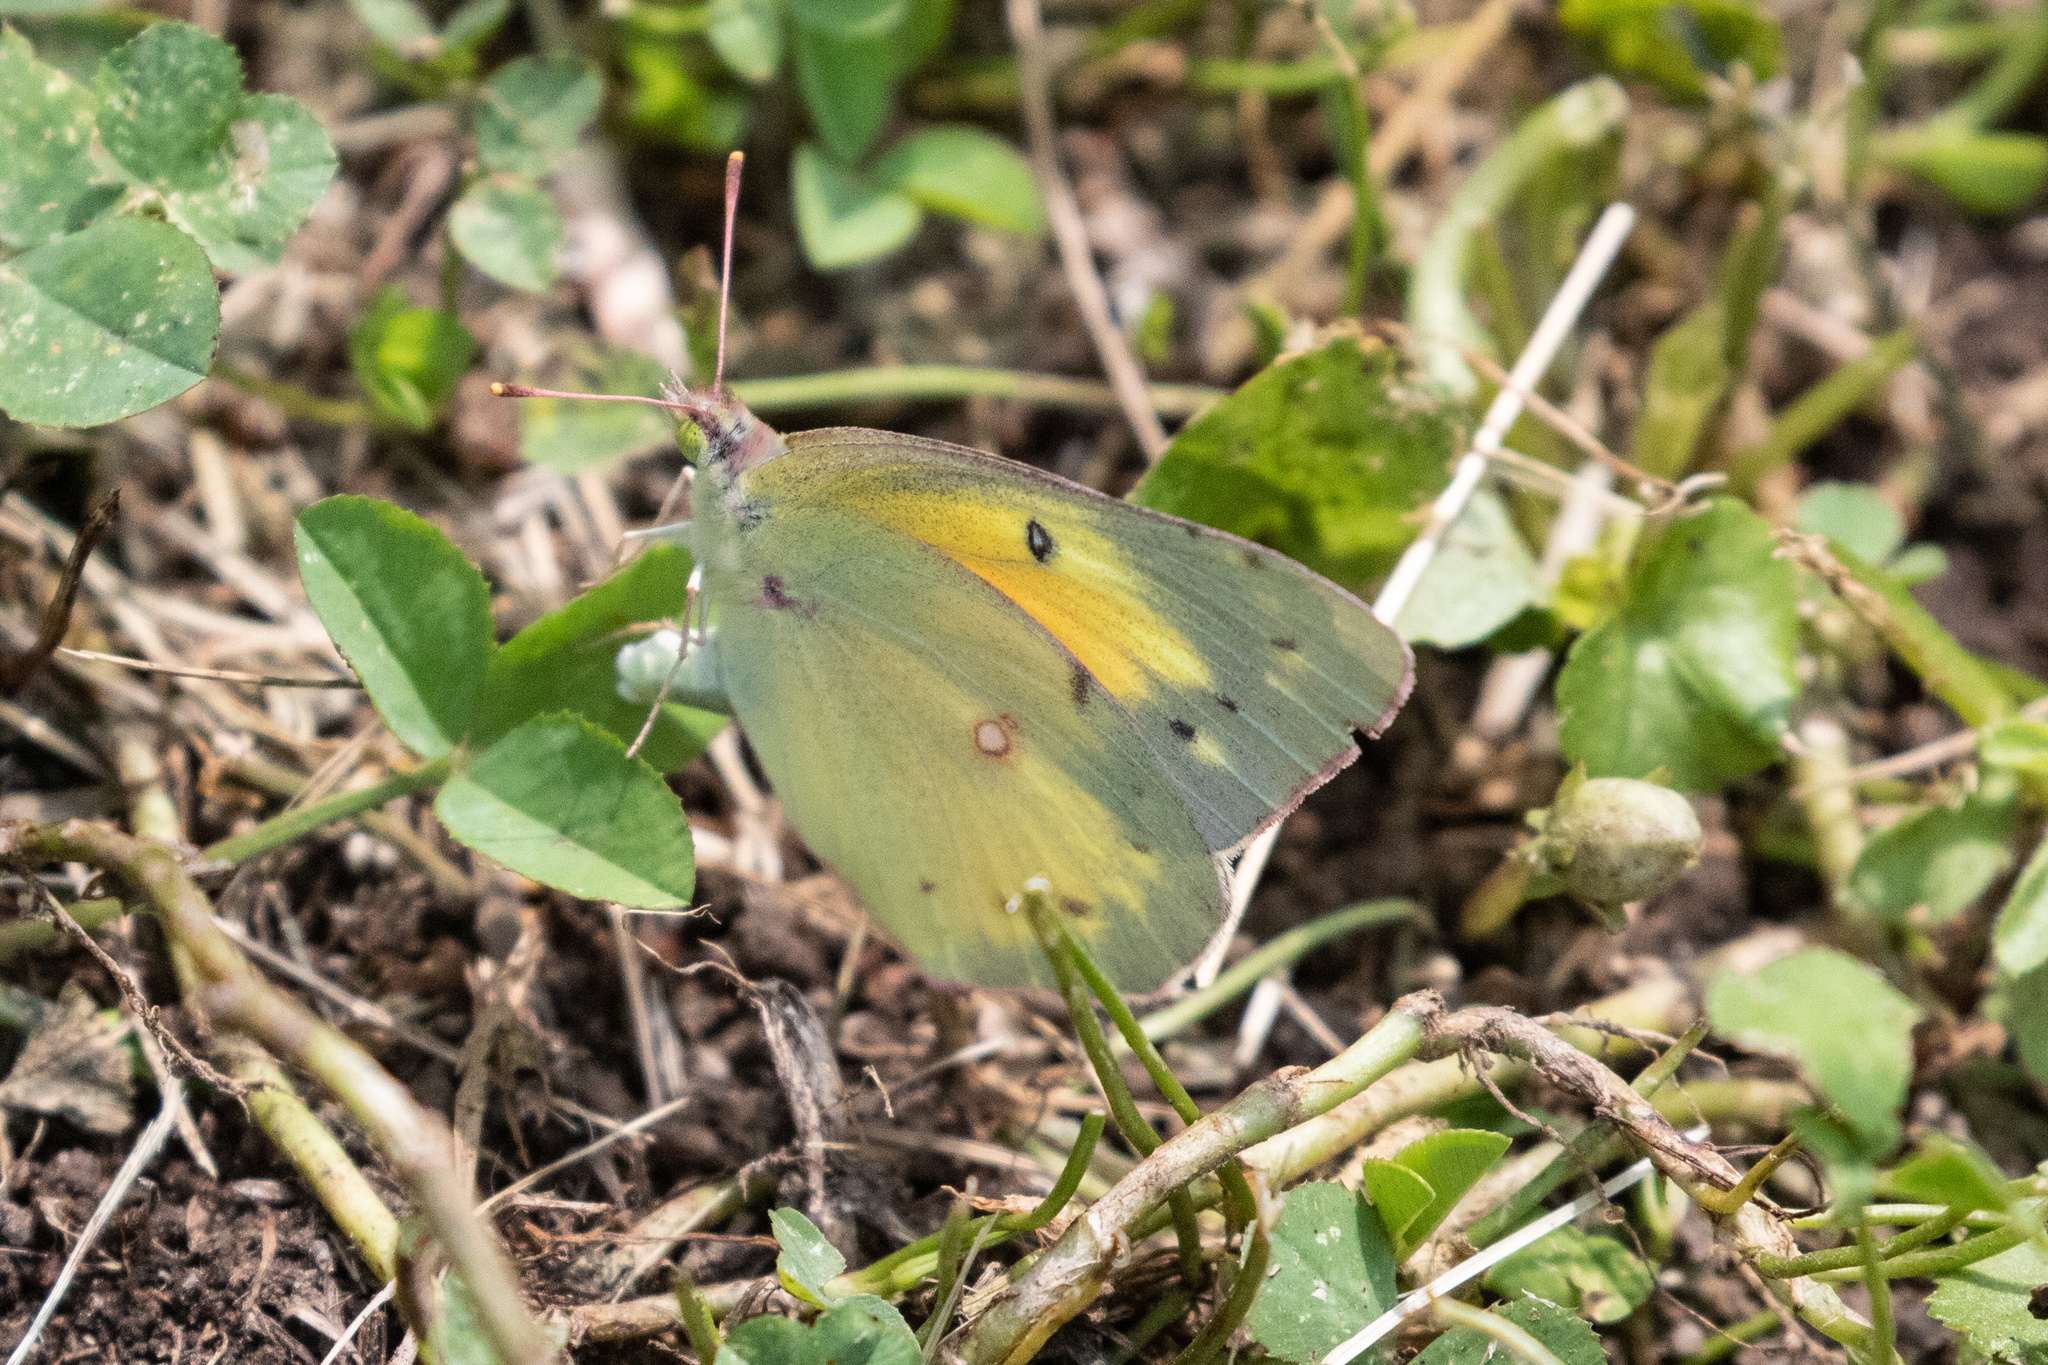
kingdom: Animalia
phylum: Arthropoda
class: Insecta
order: Lepidoptera
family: Pieridae
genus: Colias
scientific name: Colias eurytheme
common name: Alfalfa butterfly
